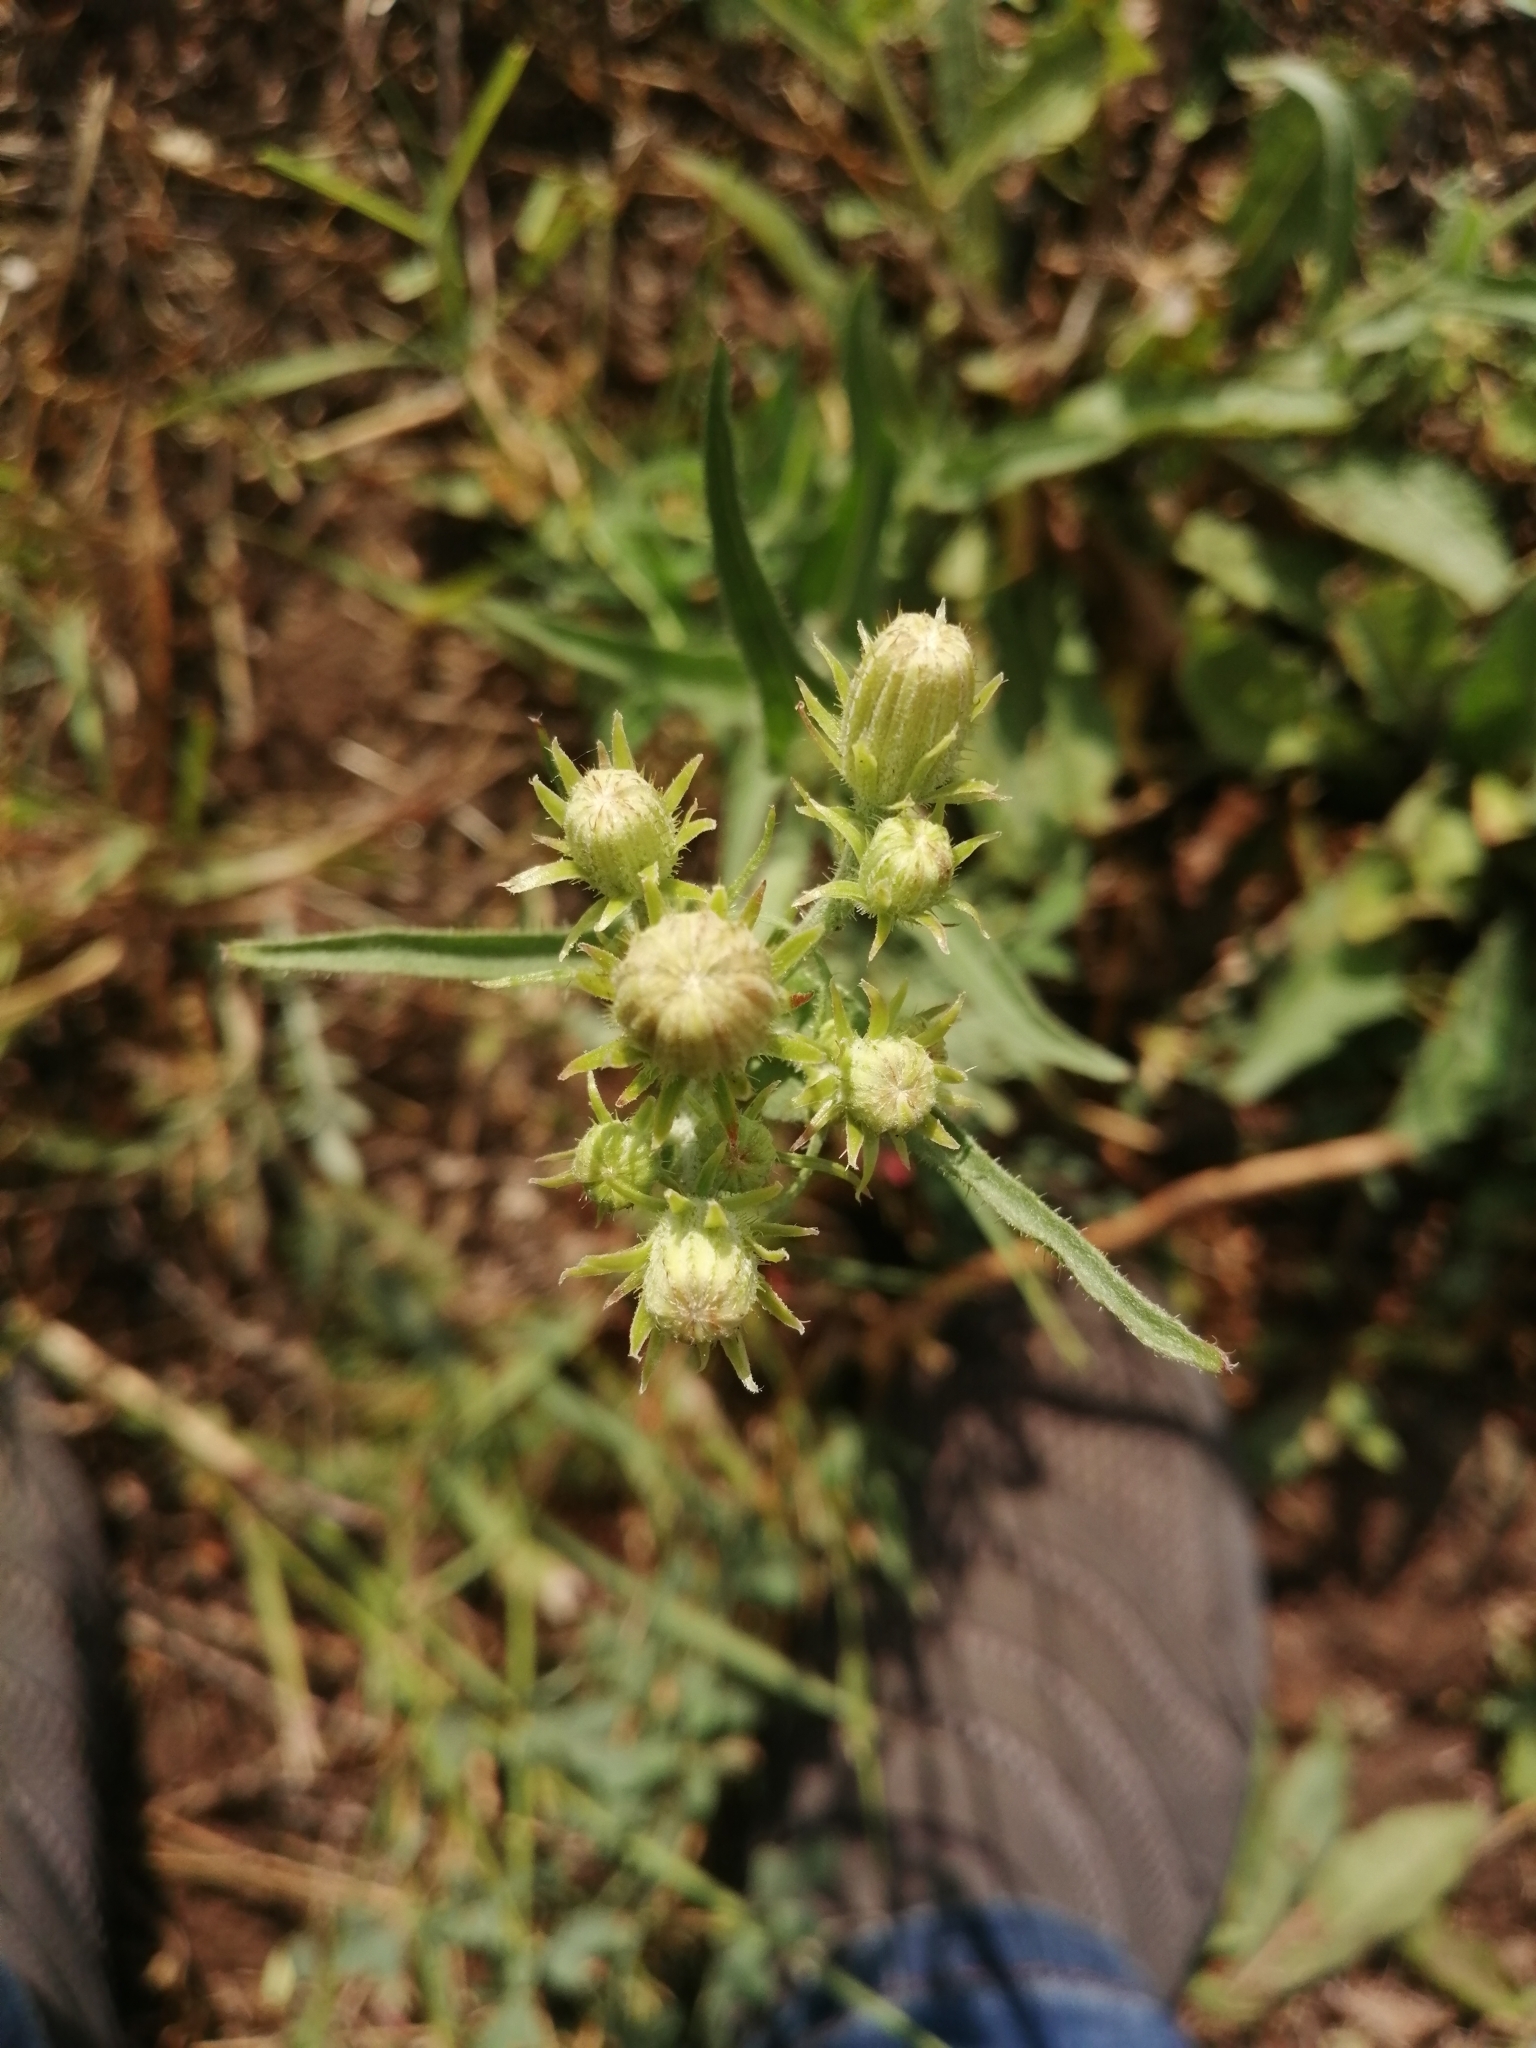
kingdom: Plantae
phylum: Tracheophyta
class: Magnoliopsida
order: Asterales
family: Asteraceae
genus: Picris
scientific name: Picris hieracioides
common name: Hawkweed oxtongue
